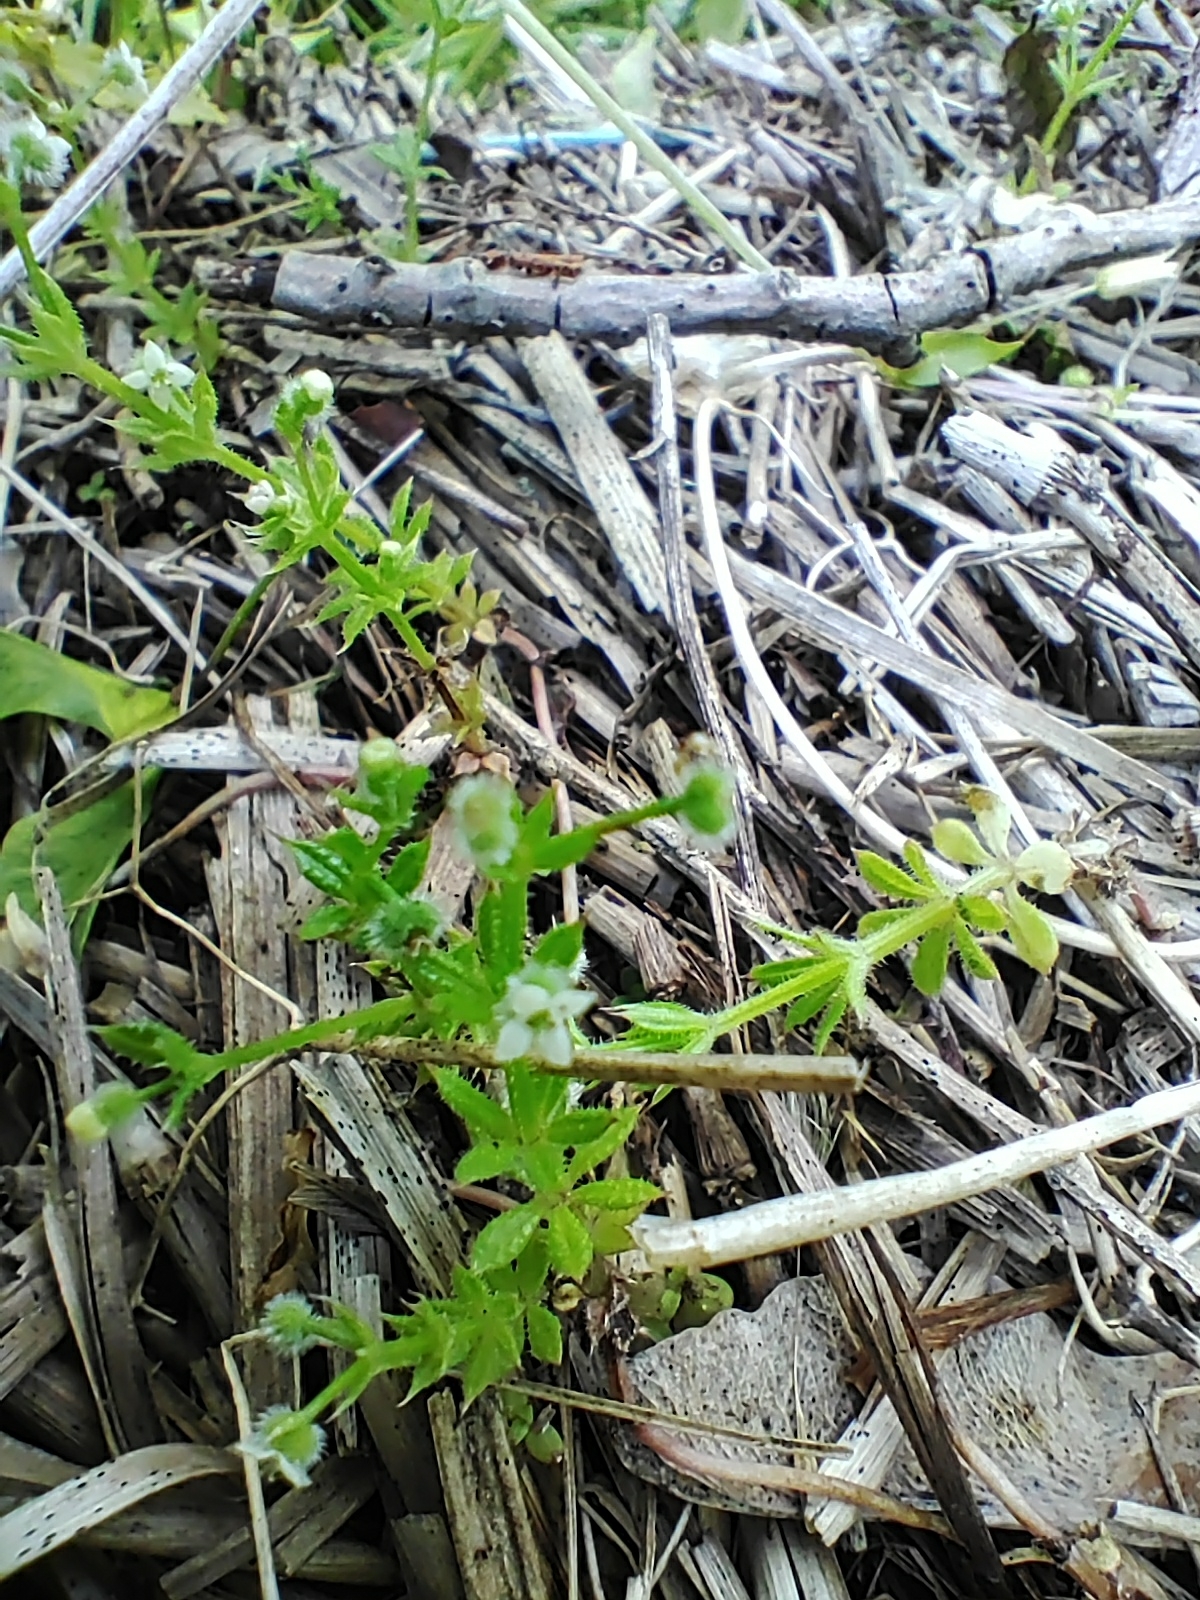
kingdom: Plantae
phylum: Tracheophyta
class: Magnoliopsida
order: Gentianales
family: Rubiaceae
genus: Galium
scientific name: Galium aparine
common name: Cleavers
